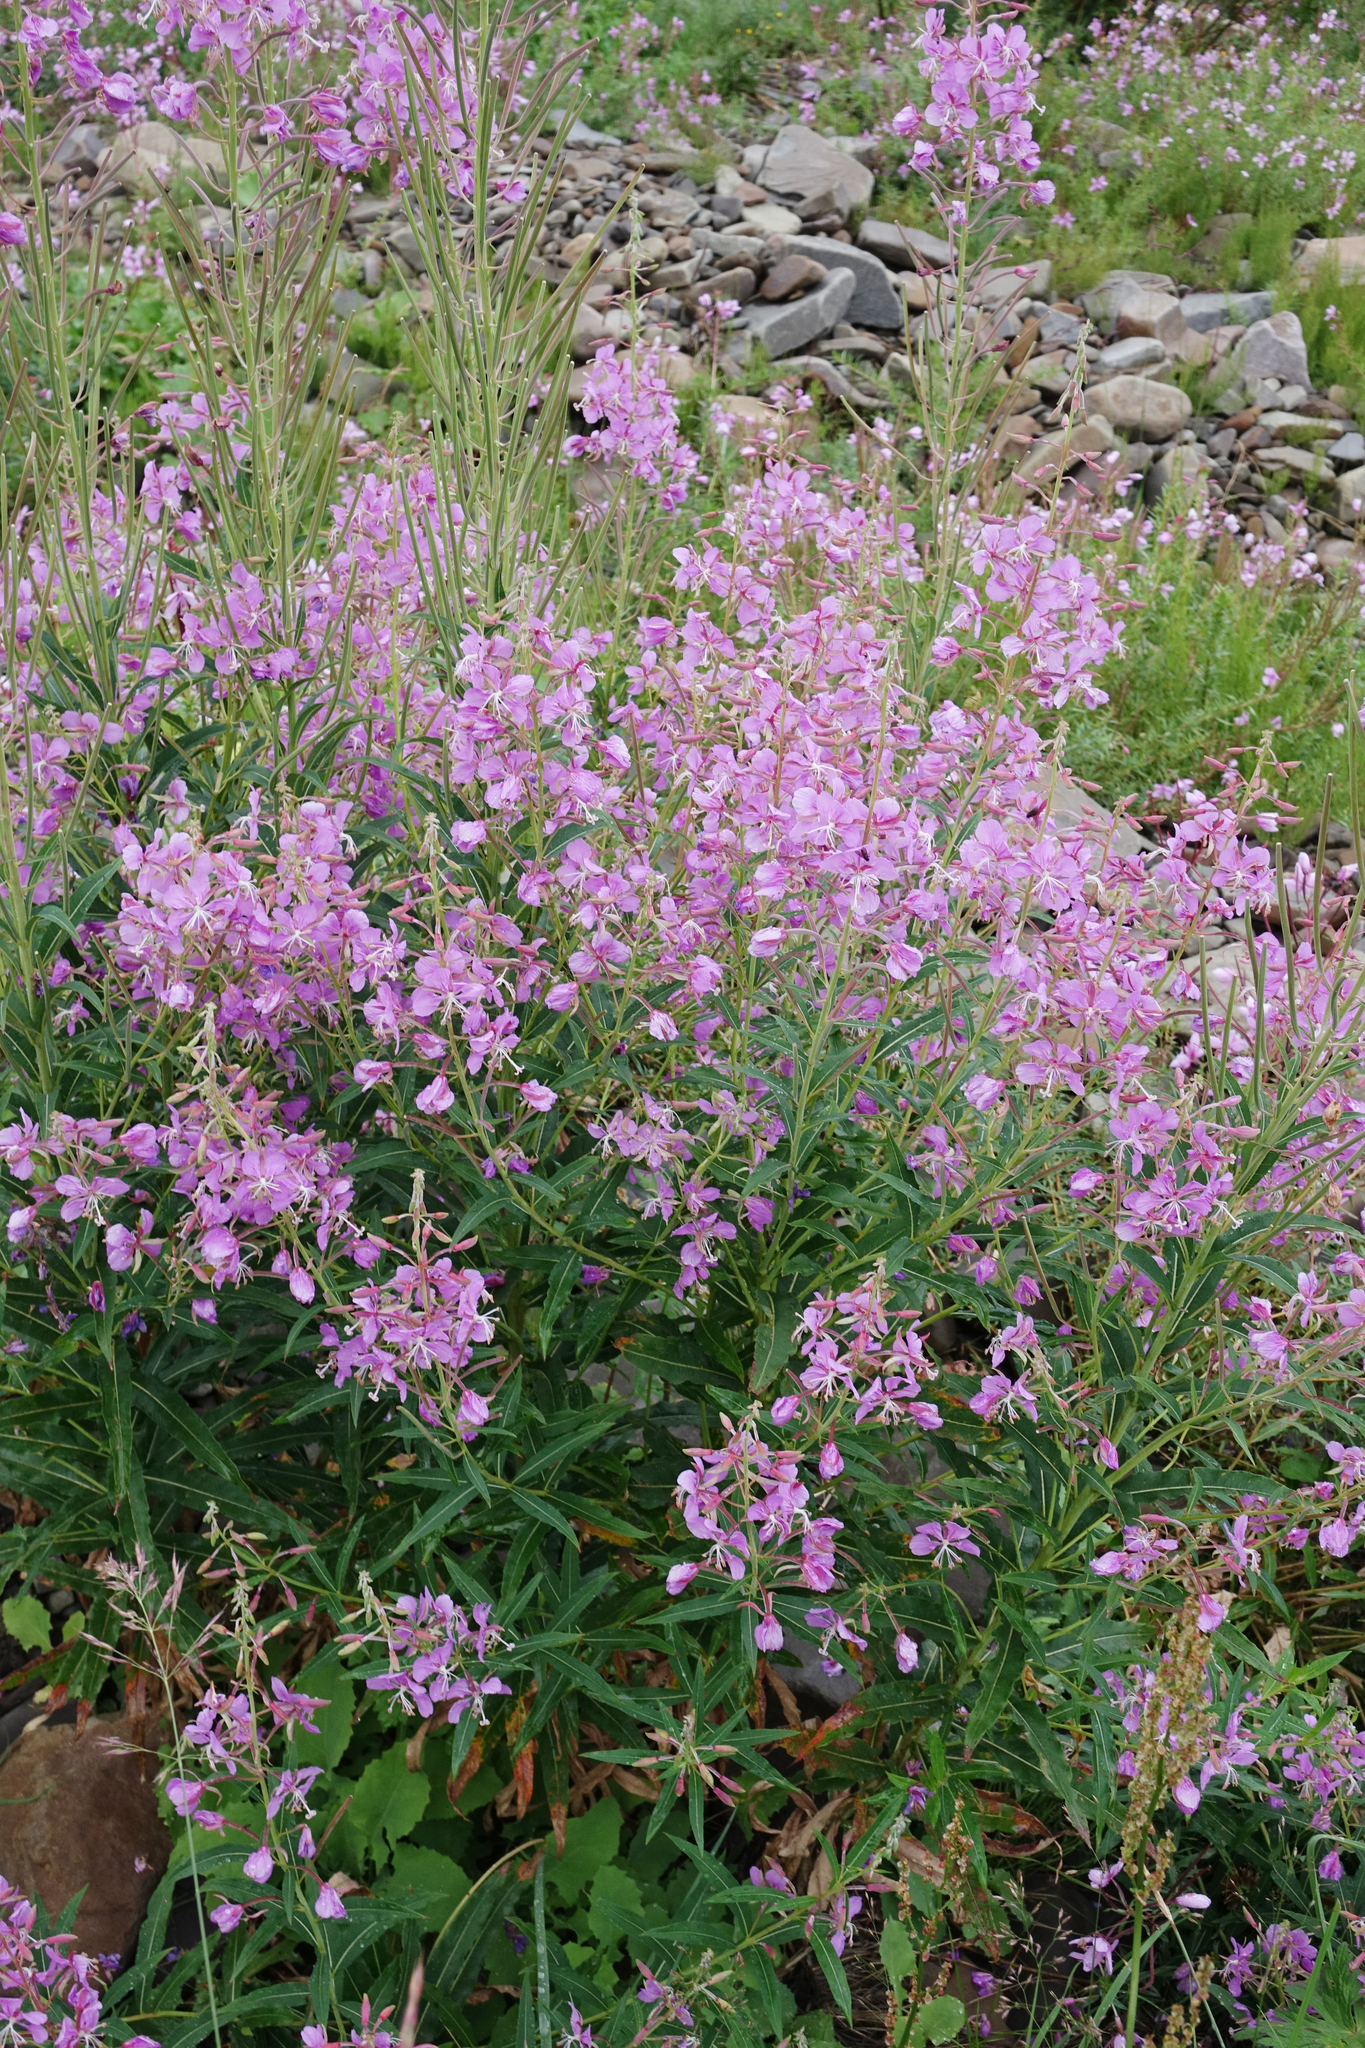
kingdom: Plantae
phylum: Tracheophyta
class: Magnoliopsida
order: Myrtales
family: Onagraceae
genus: Chamaenerion
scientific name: Chamaenerion angustifolium
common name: Fireweed
